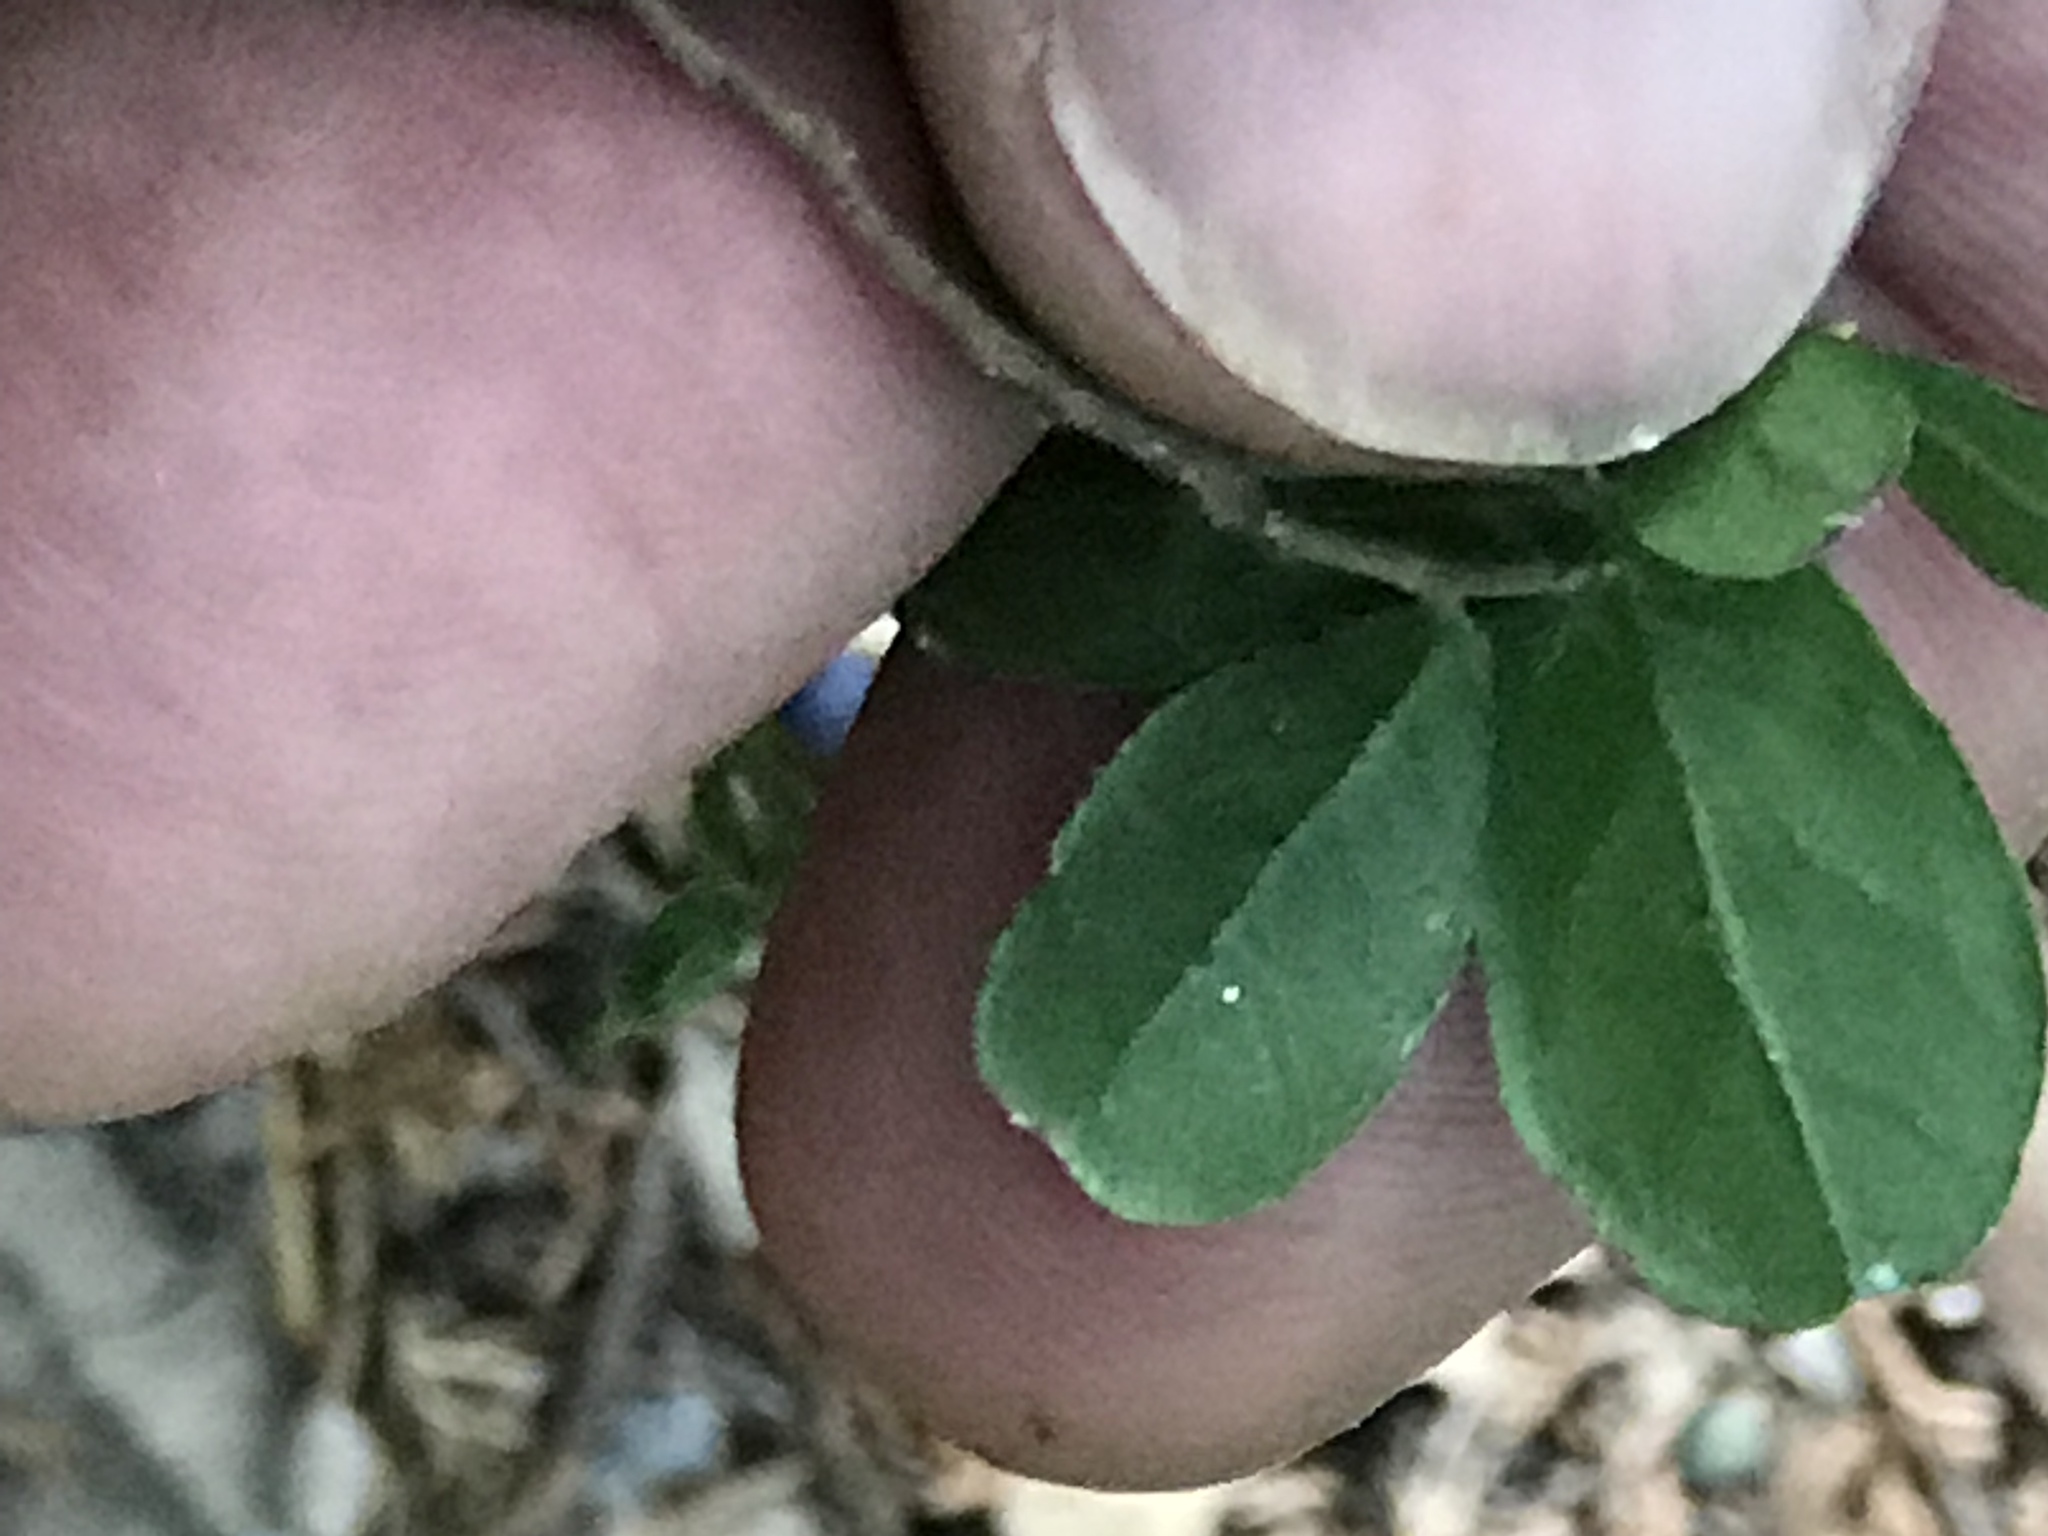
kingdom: Plantae
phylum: Tracheophyta
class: Magnoliopsida
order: Ericales
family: Ebenaceae
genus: Diospyros
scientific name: Diospyros texana
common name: Texas persimmon
